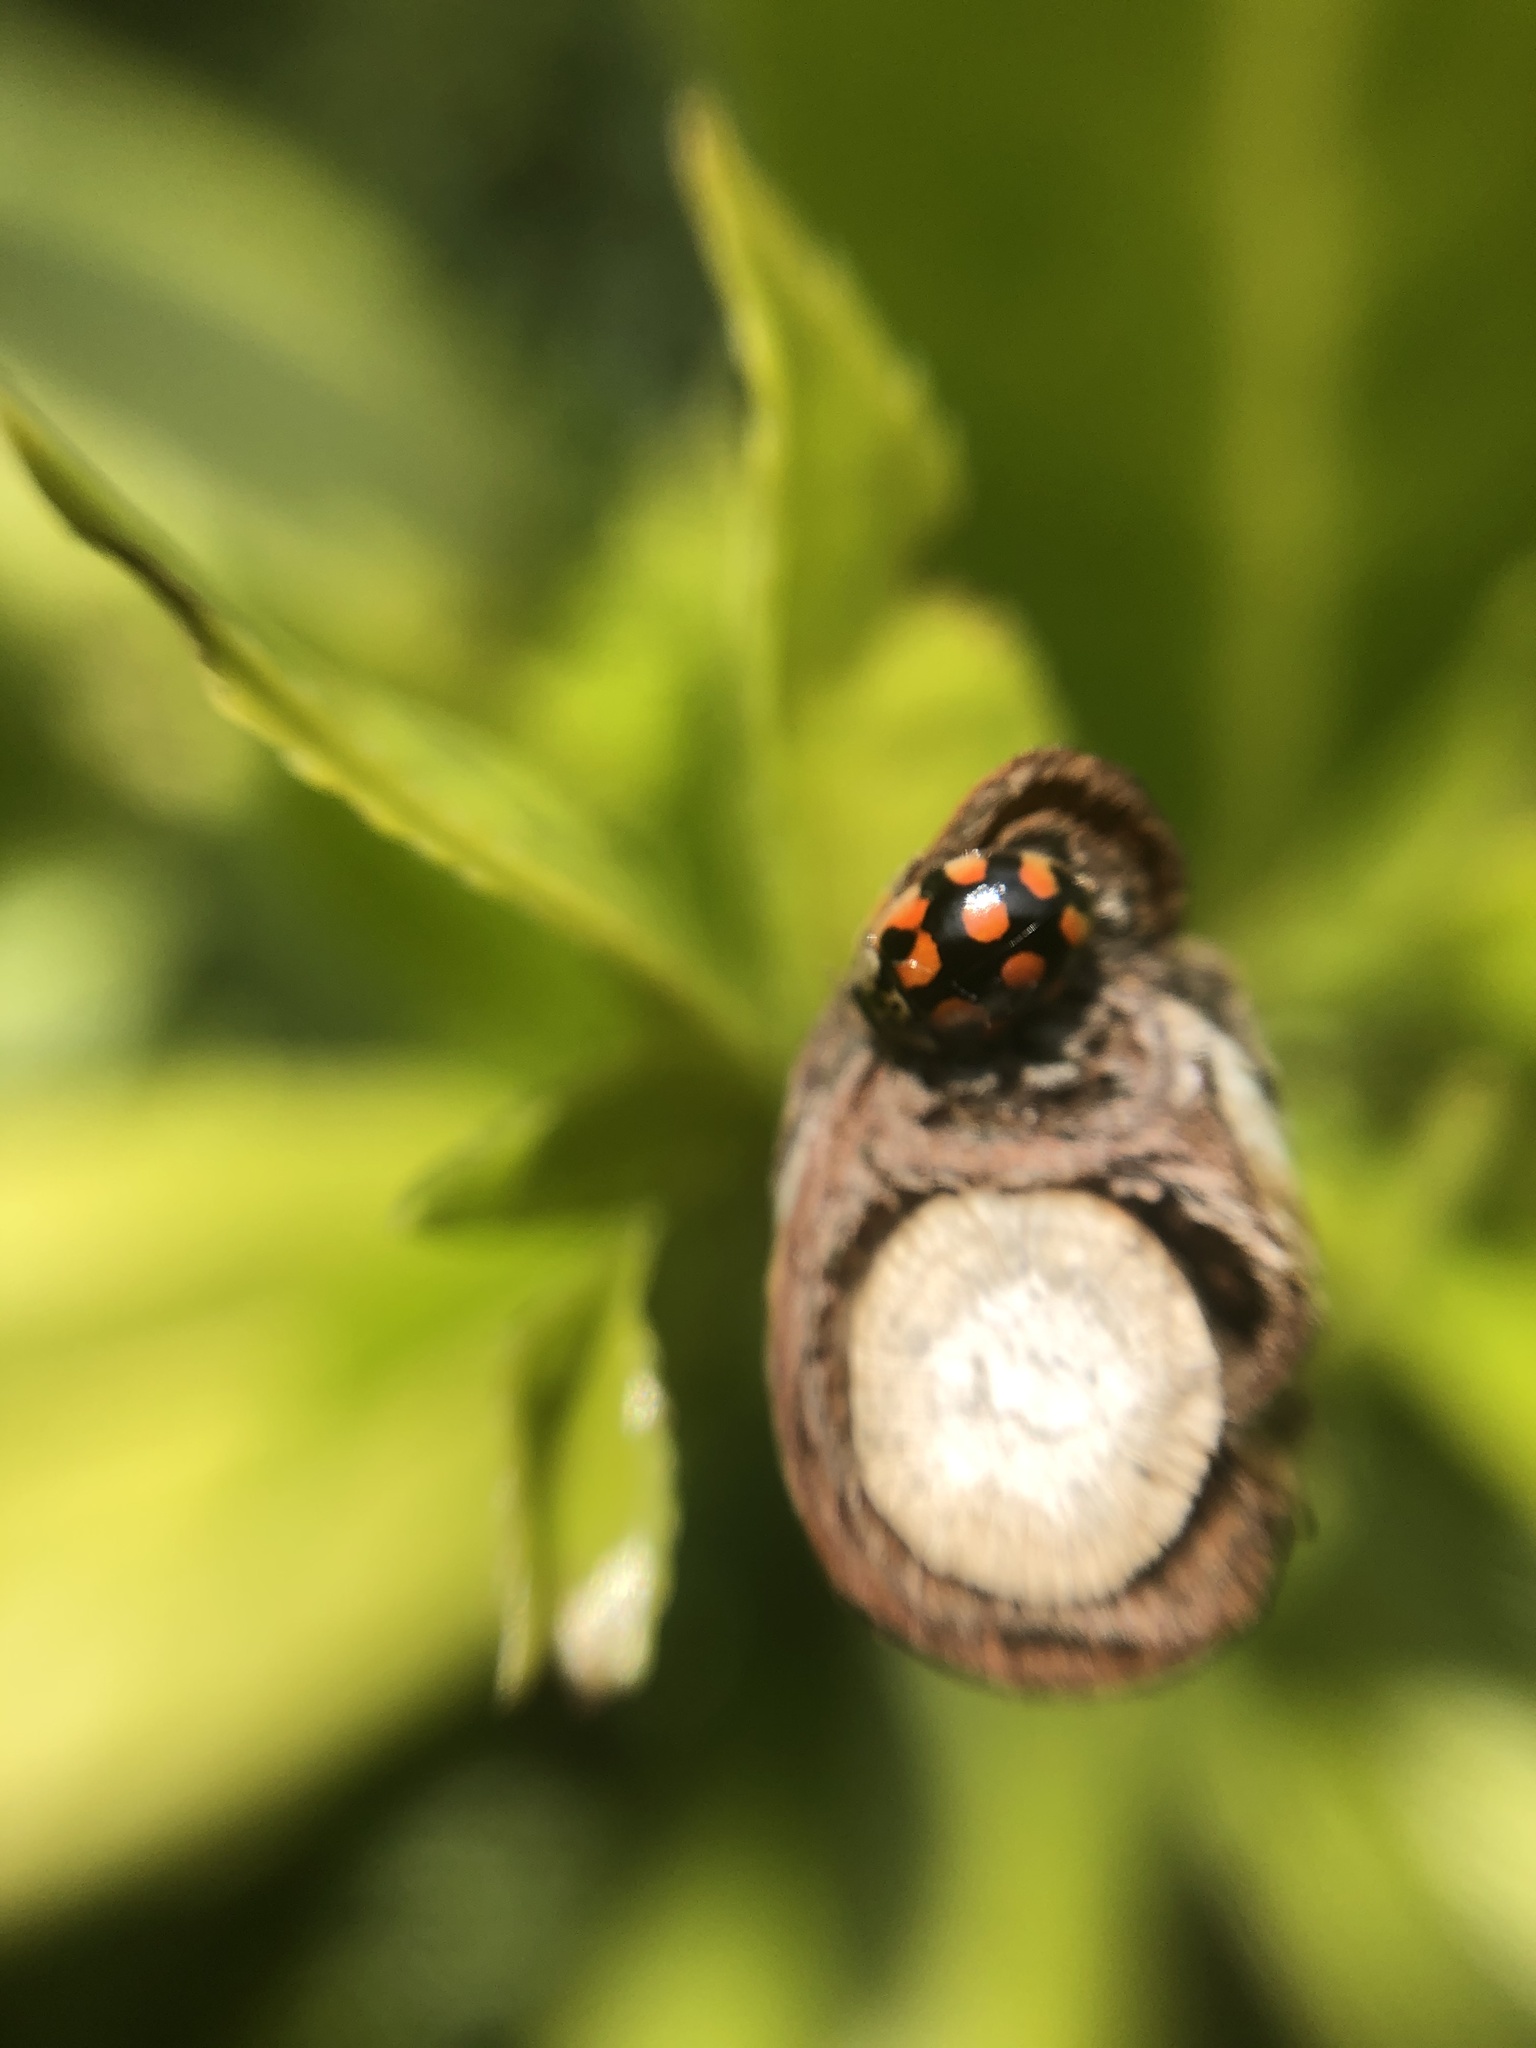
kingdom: Animalia
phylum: Arthropoda
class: Insecta
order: Coleoptera
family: Coccinellidae
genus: Adalia
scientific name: Adalia decempunctata
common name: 10-spot ladybird
